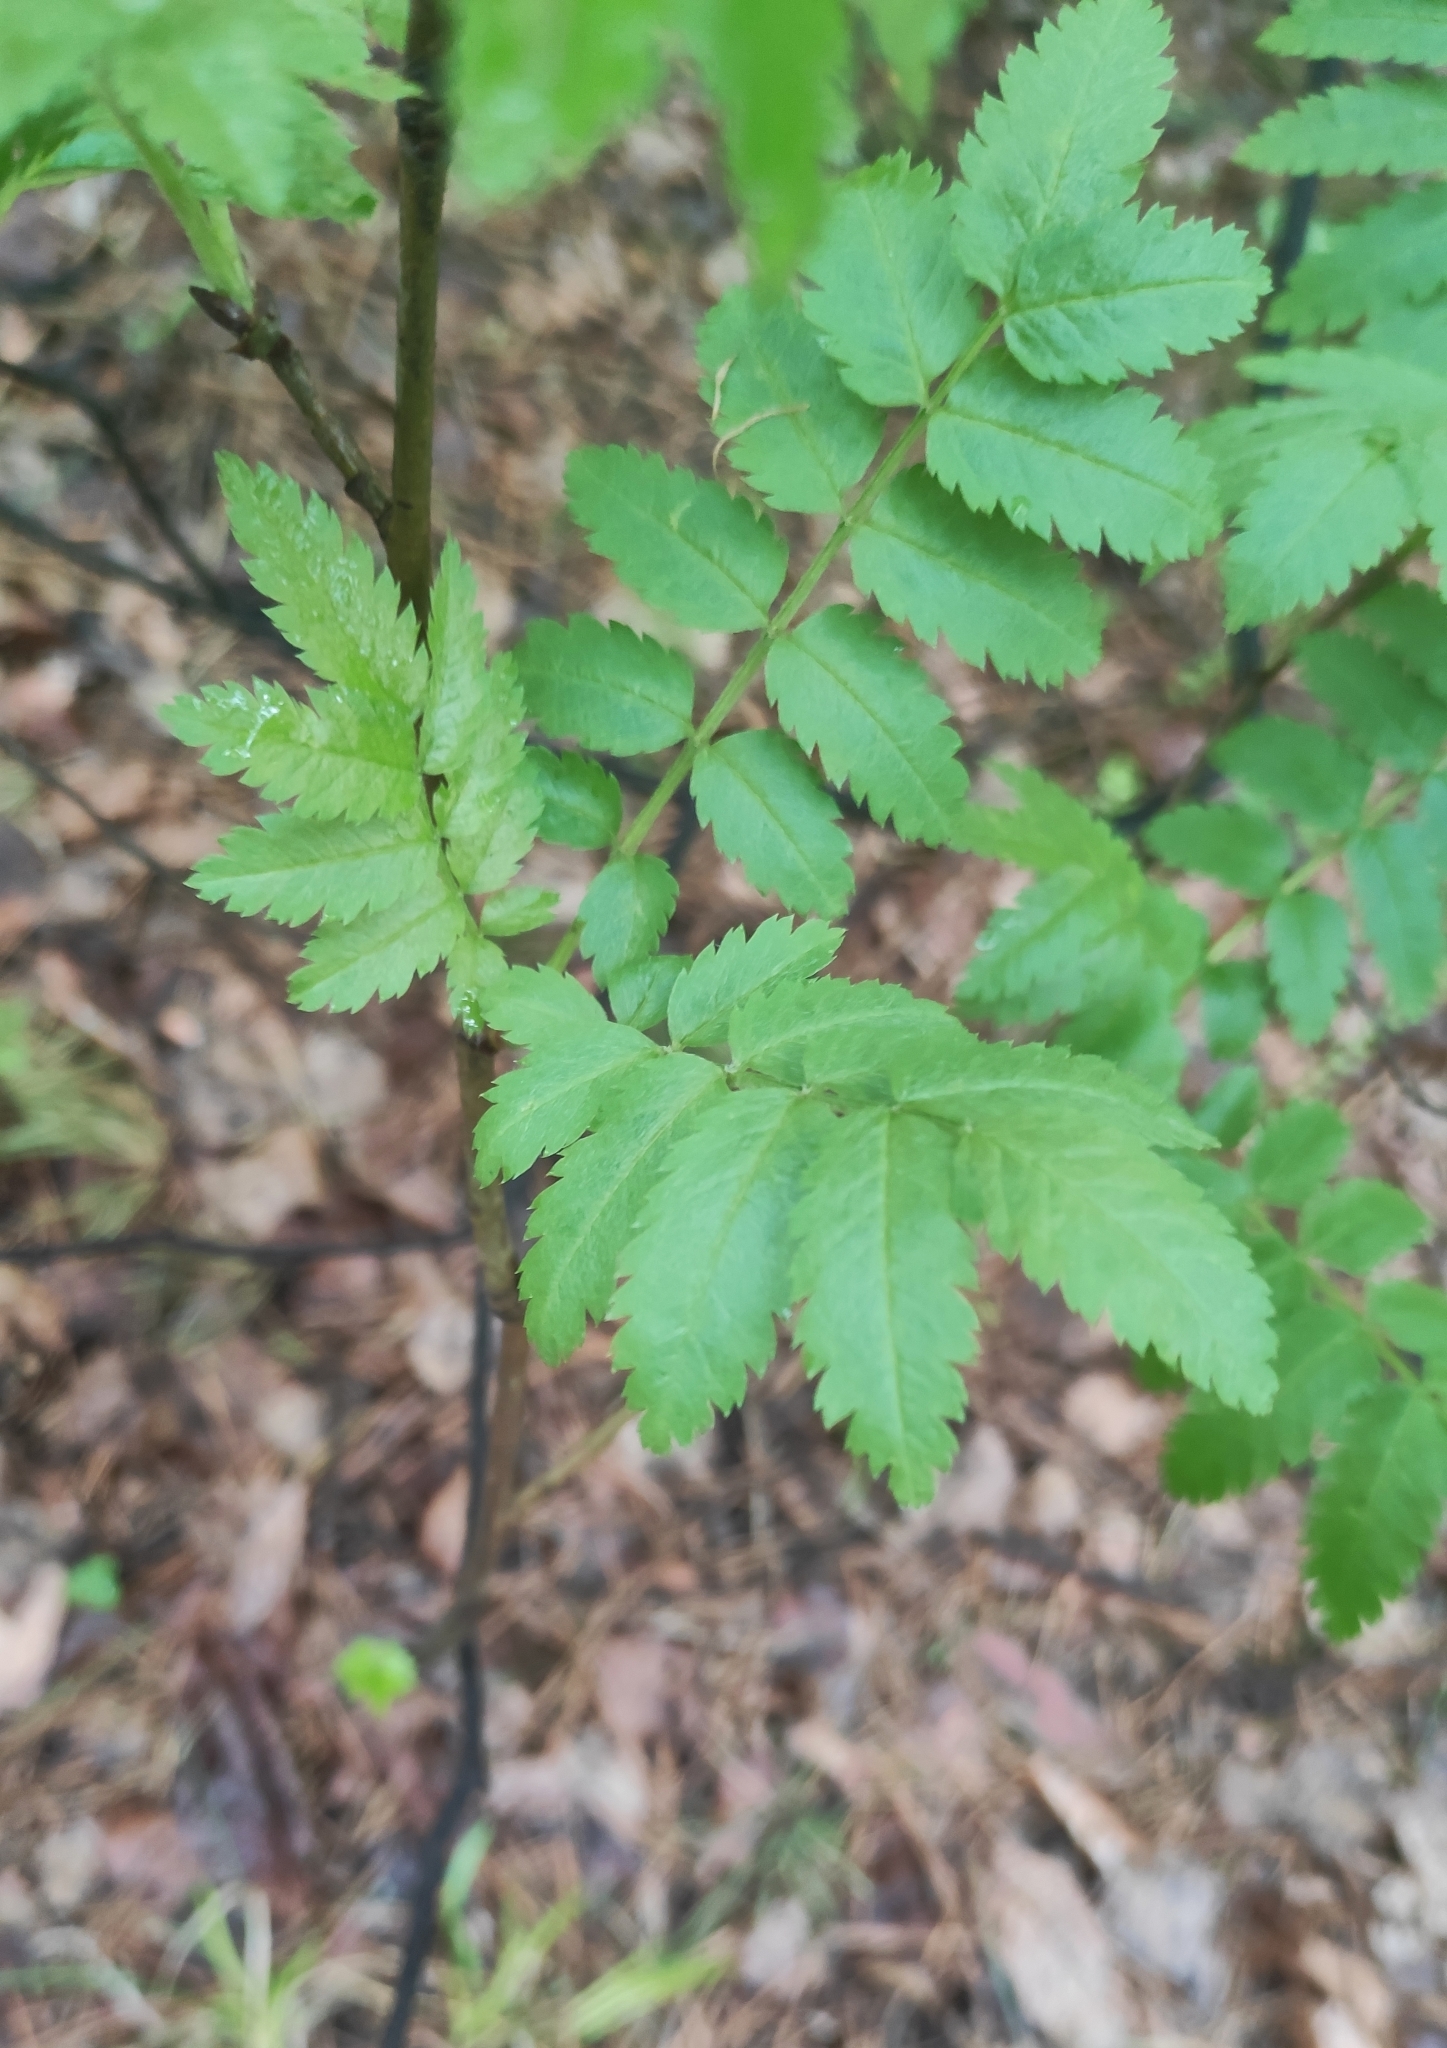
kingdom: Plantae
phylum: Tracheophyta
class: Magnoliopsida
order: Rosales
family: Rosaceae
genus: Sorbus
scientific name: Sorbus aucuparia
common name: Rowan
